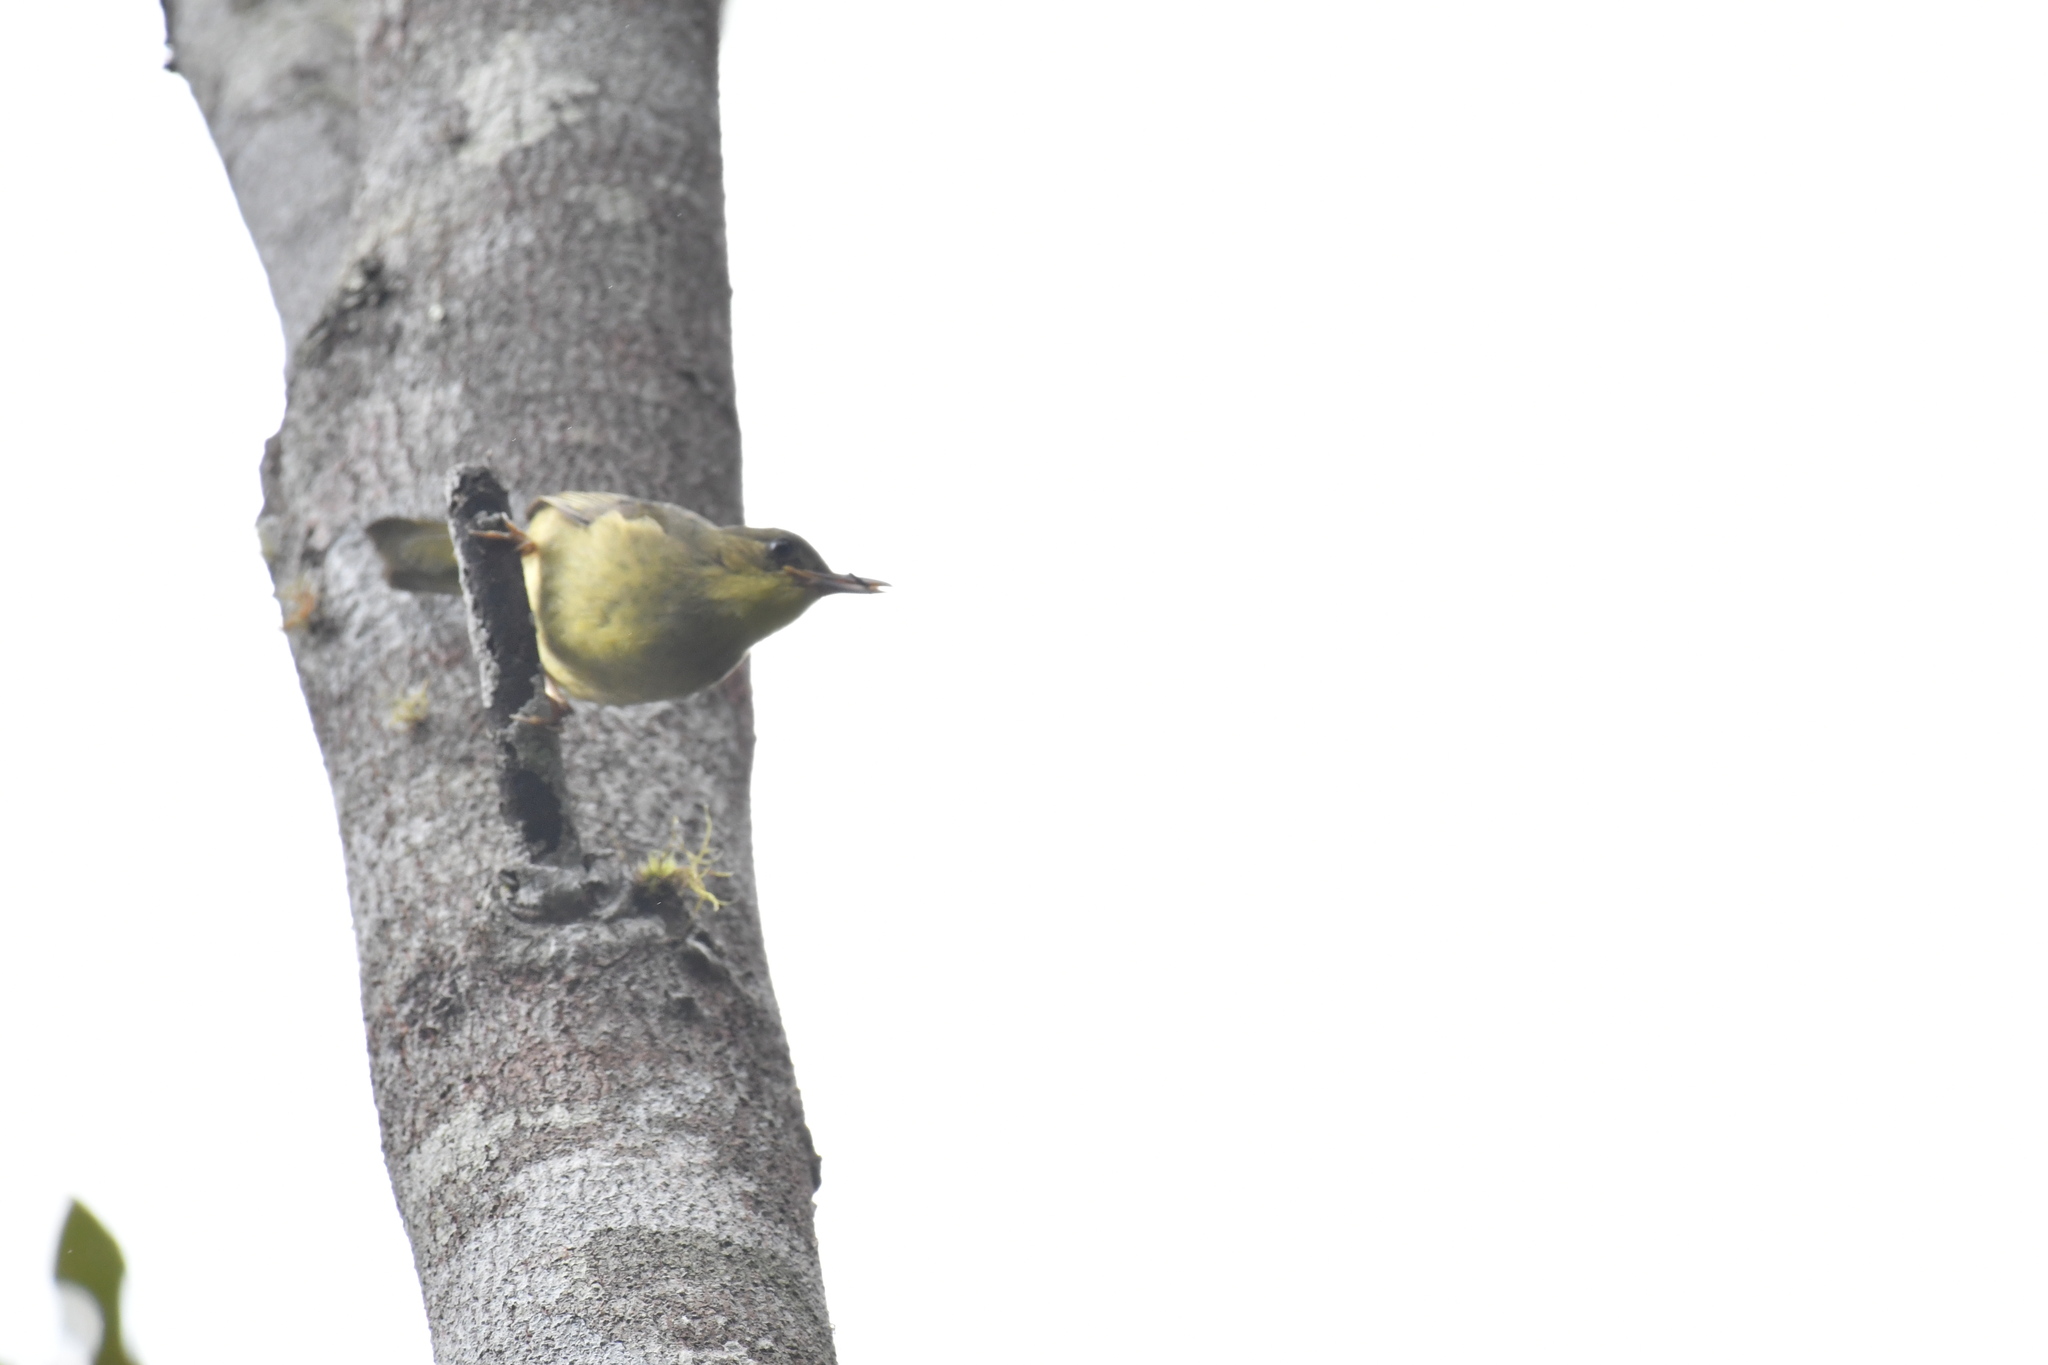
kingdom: Animalia
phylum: Chordata
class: Aves
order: Passeriformes
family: Bernieridae
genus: Bernieria
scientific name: Bernieria madagascariensis
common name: Long-billed bernieria
